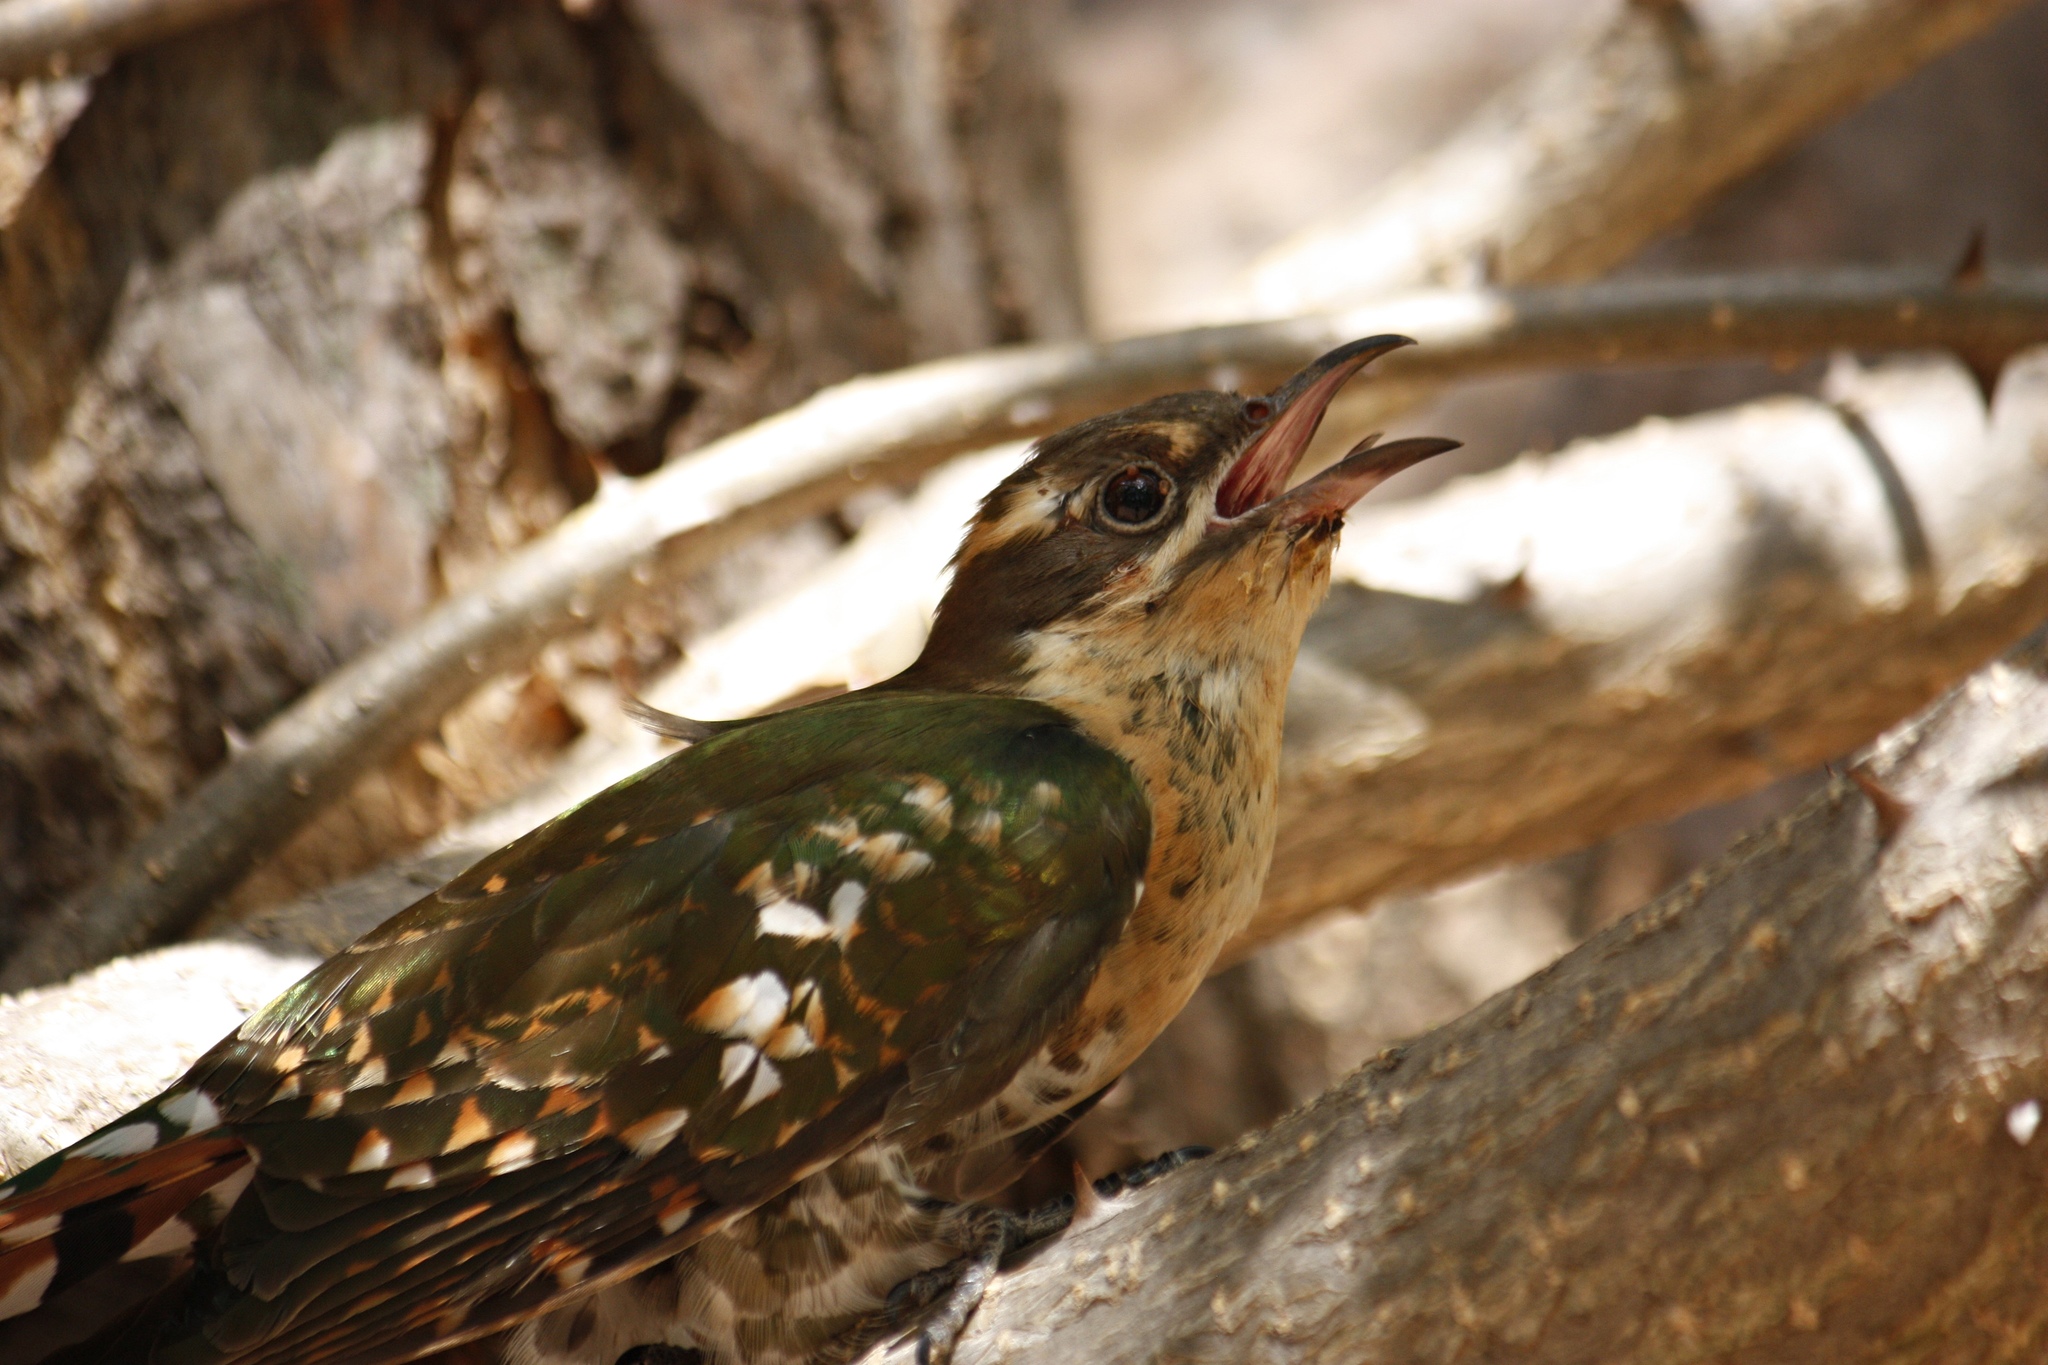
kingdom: Animalia
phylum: Chordata
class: Aves
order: Cuculiformes
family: Cuculidae
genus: Chrysococcyx
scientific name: Chrysococcyx caprius
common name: Diederik cuckoo
